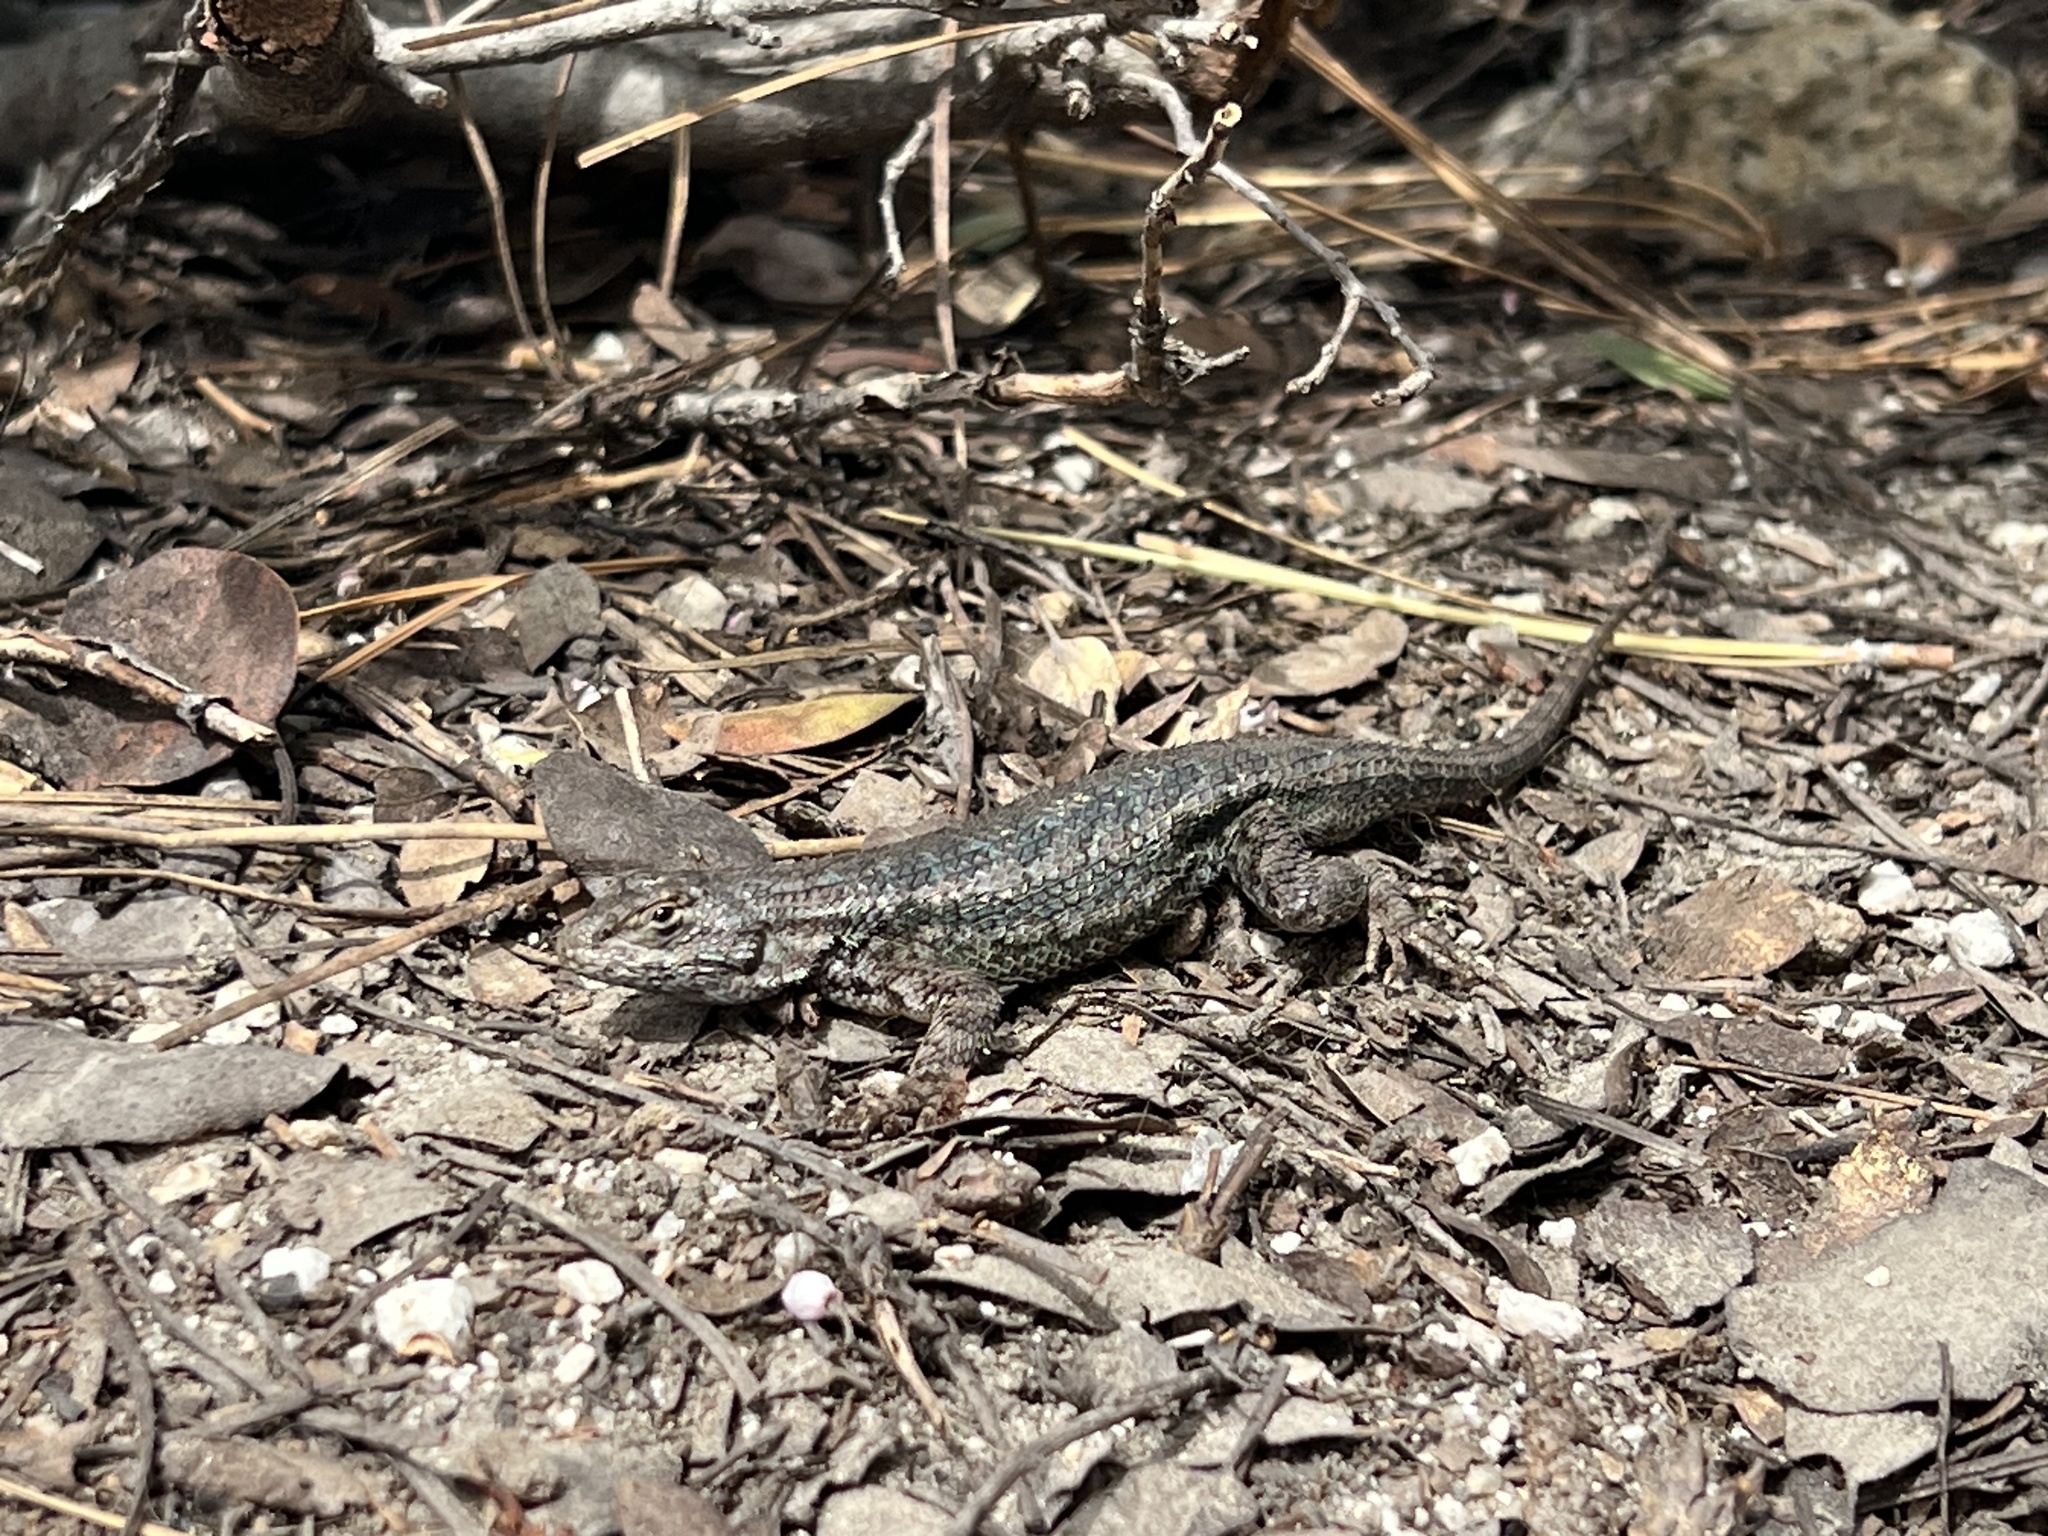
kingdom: Animalia
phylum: Chordata
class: Squamata
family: Phrynosomatidae
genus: Sceloporus
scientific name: Sceloporus occidentalis
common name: Western fence lizard
